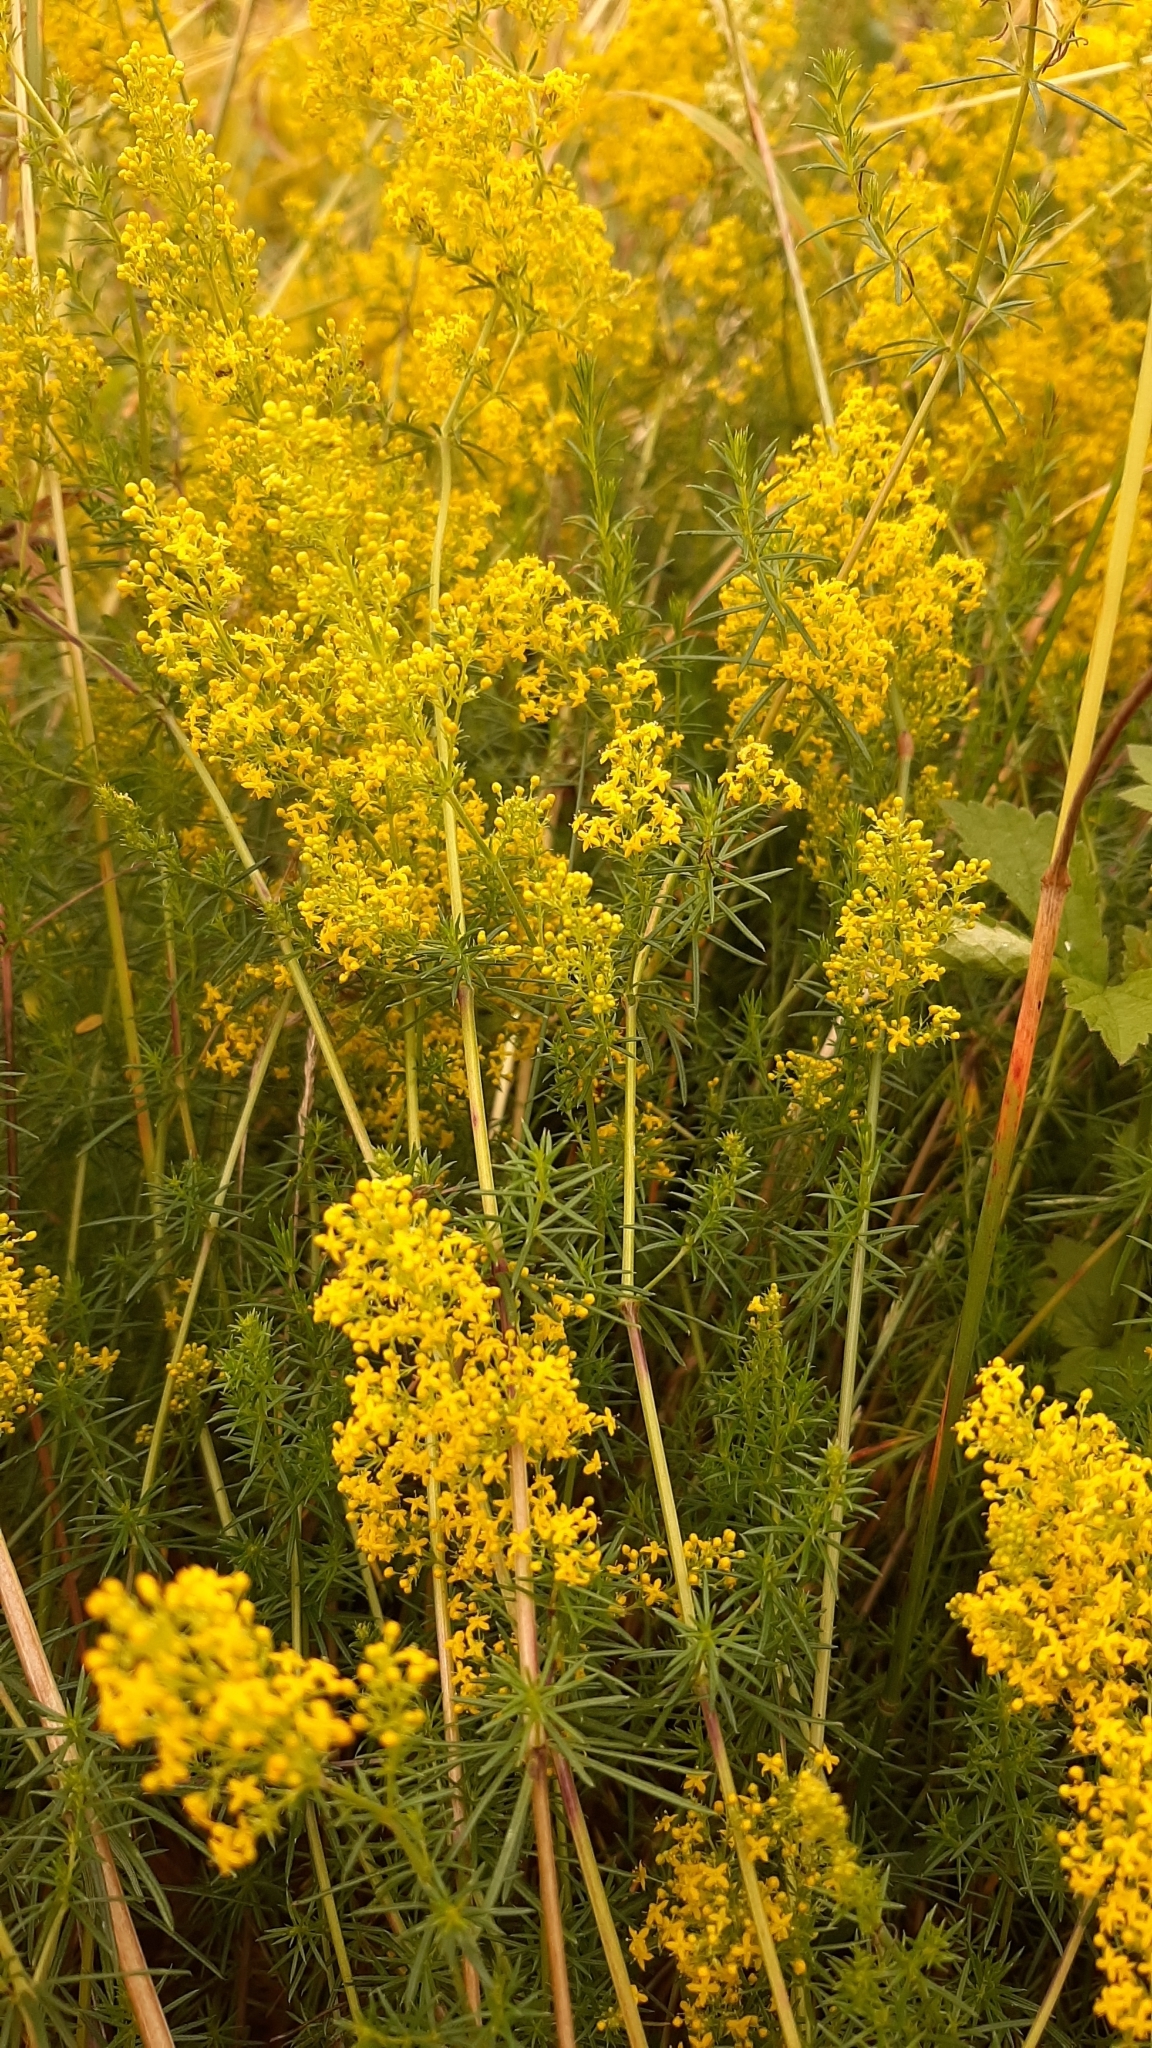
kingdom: Plantae
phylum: Tracheophyta
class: Magnoliopsida
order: Gentianales
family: Rubiaceae
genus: Galium
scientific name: Galium verum
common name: Lady's bedstraw
